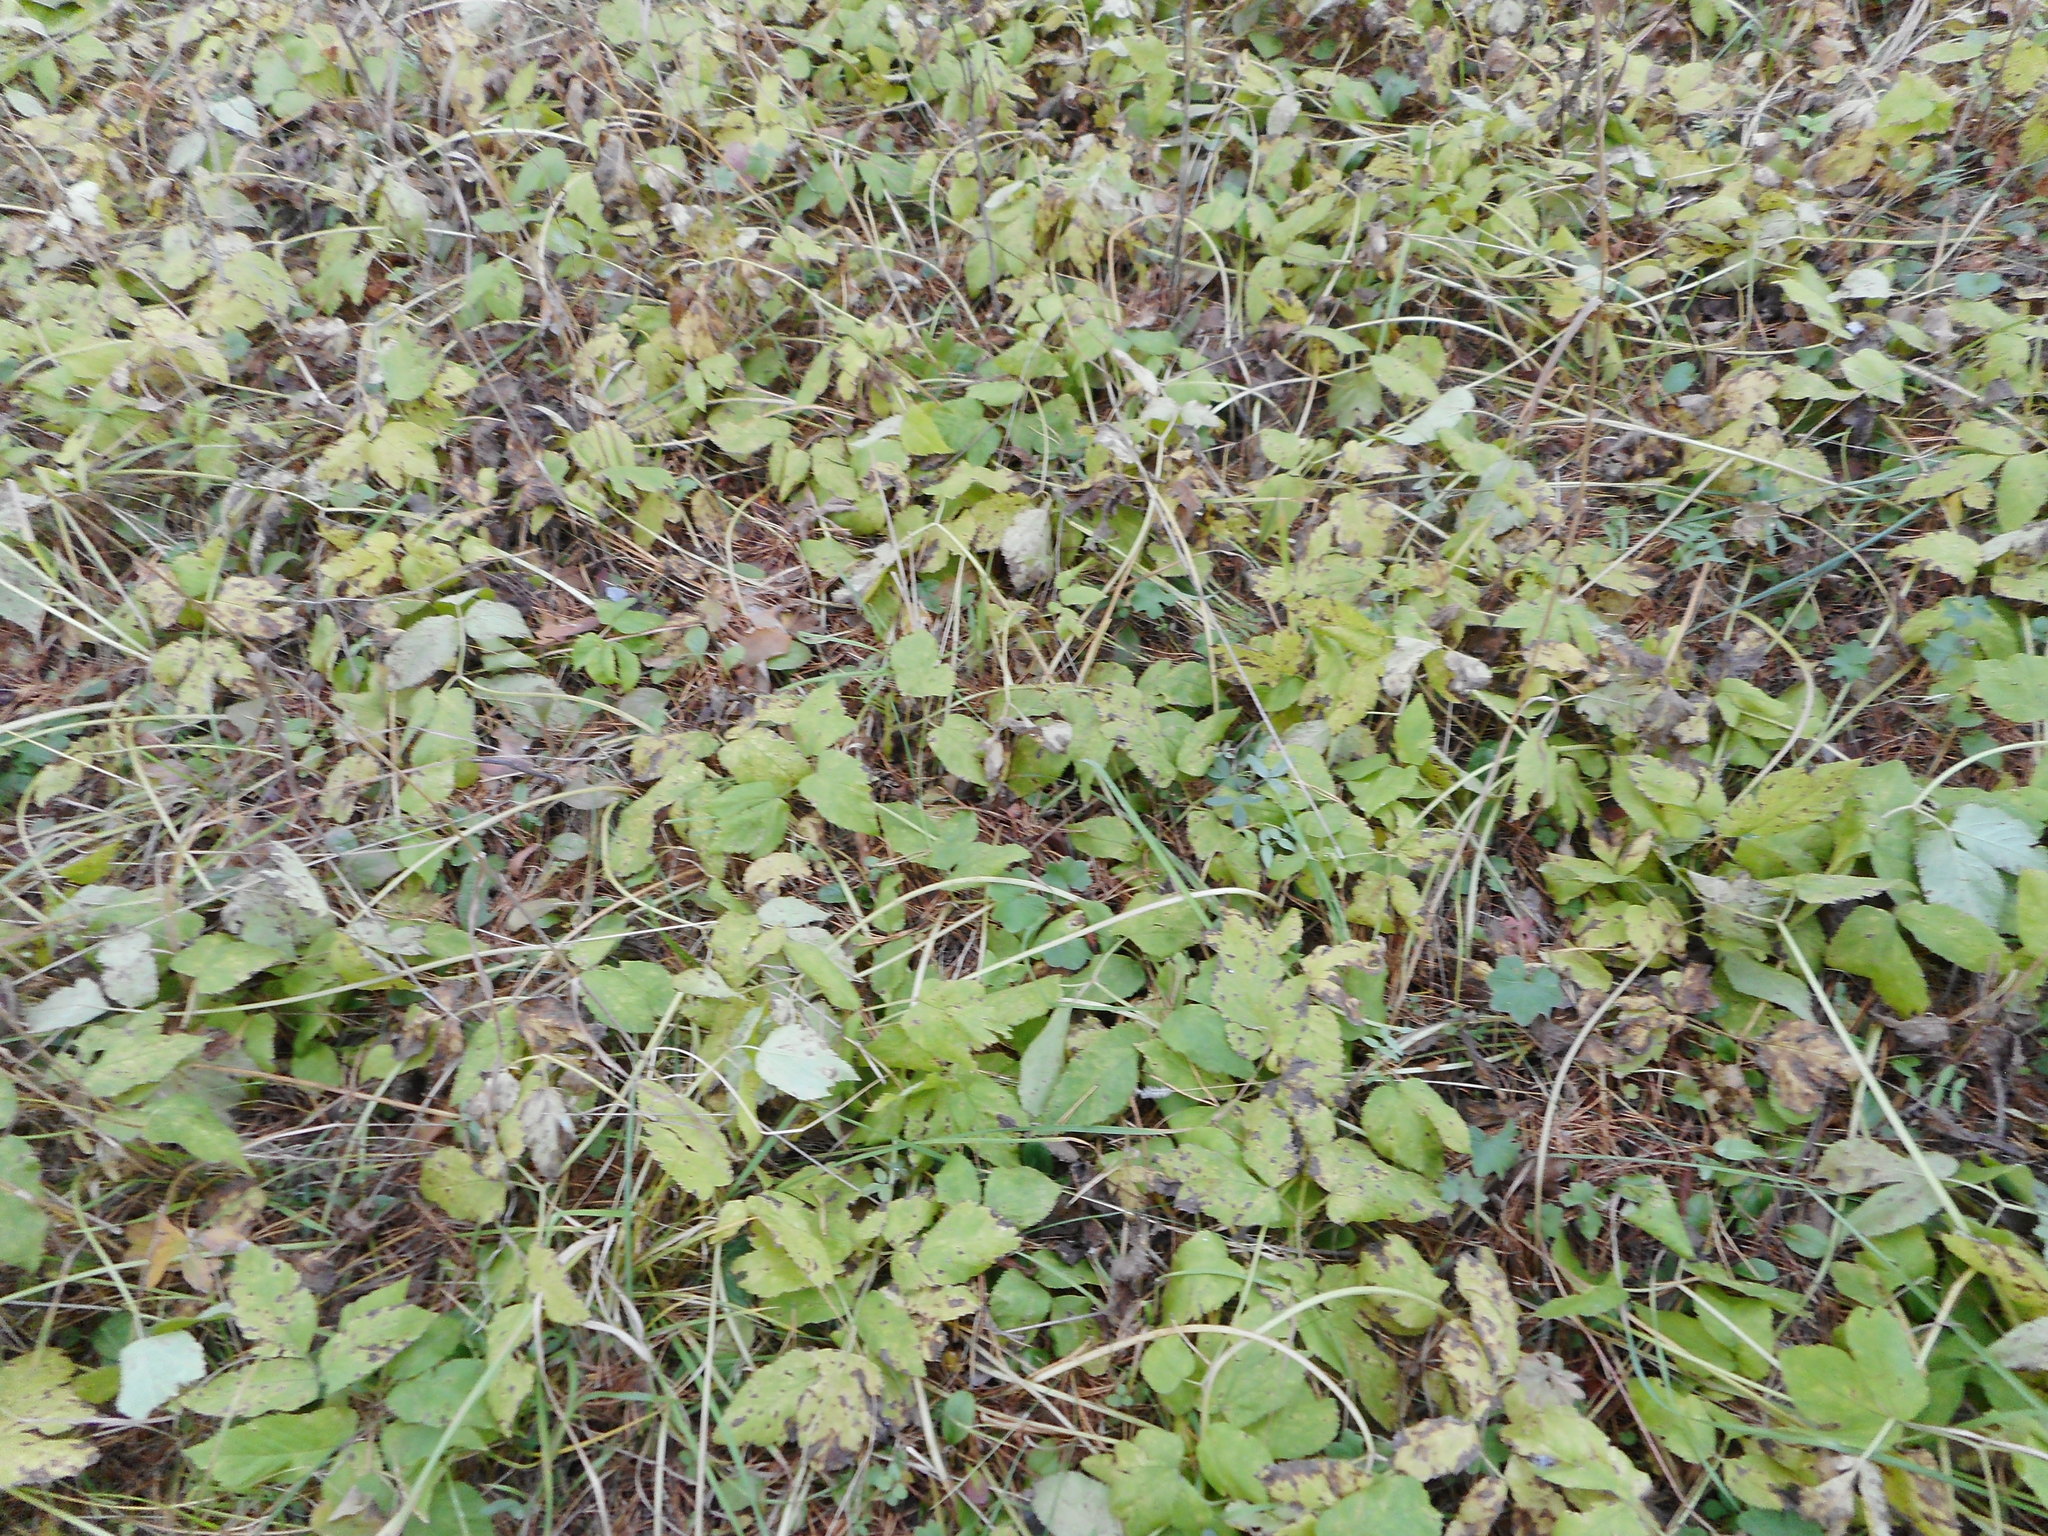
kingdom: Plantae
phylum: Tracheophyta
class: Magnoliopsida
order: Apiales
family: Apiaceae
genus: Aegopodium
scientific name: Aegopodium podagraria
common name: Ground-elder
